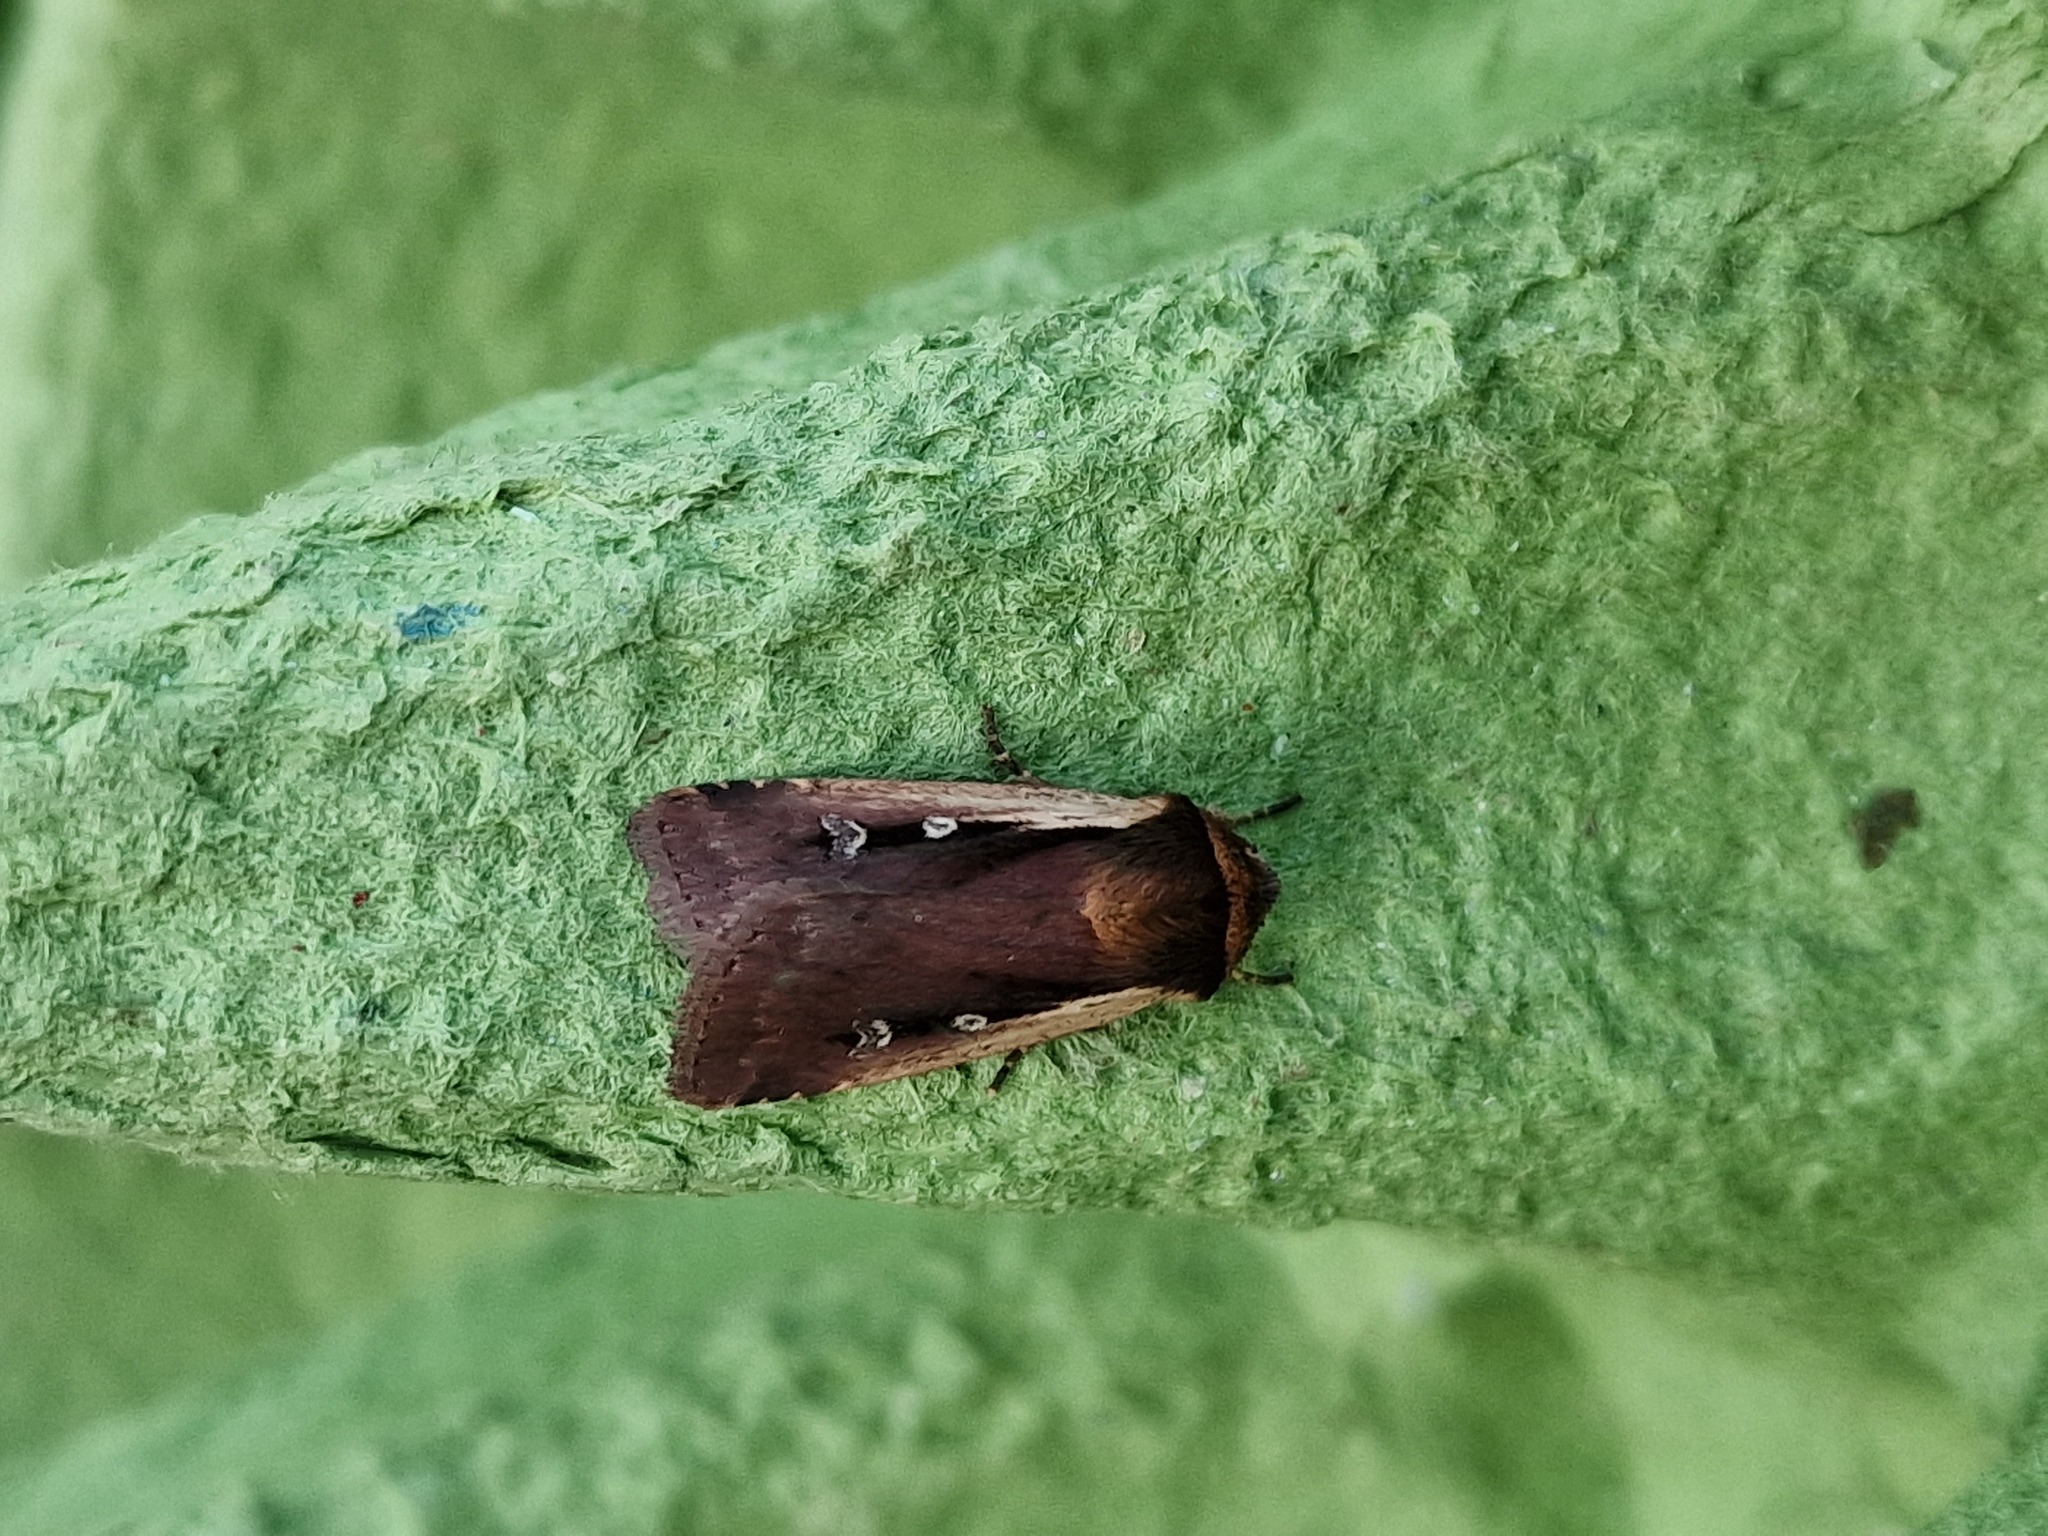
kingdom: Animalia
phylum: Arthropoda
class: Insecta
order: Lepidoptera
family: Noctuidae
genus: Ochropleura
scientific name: Ochropleura plecta
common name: Flame shoulder
